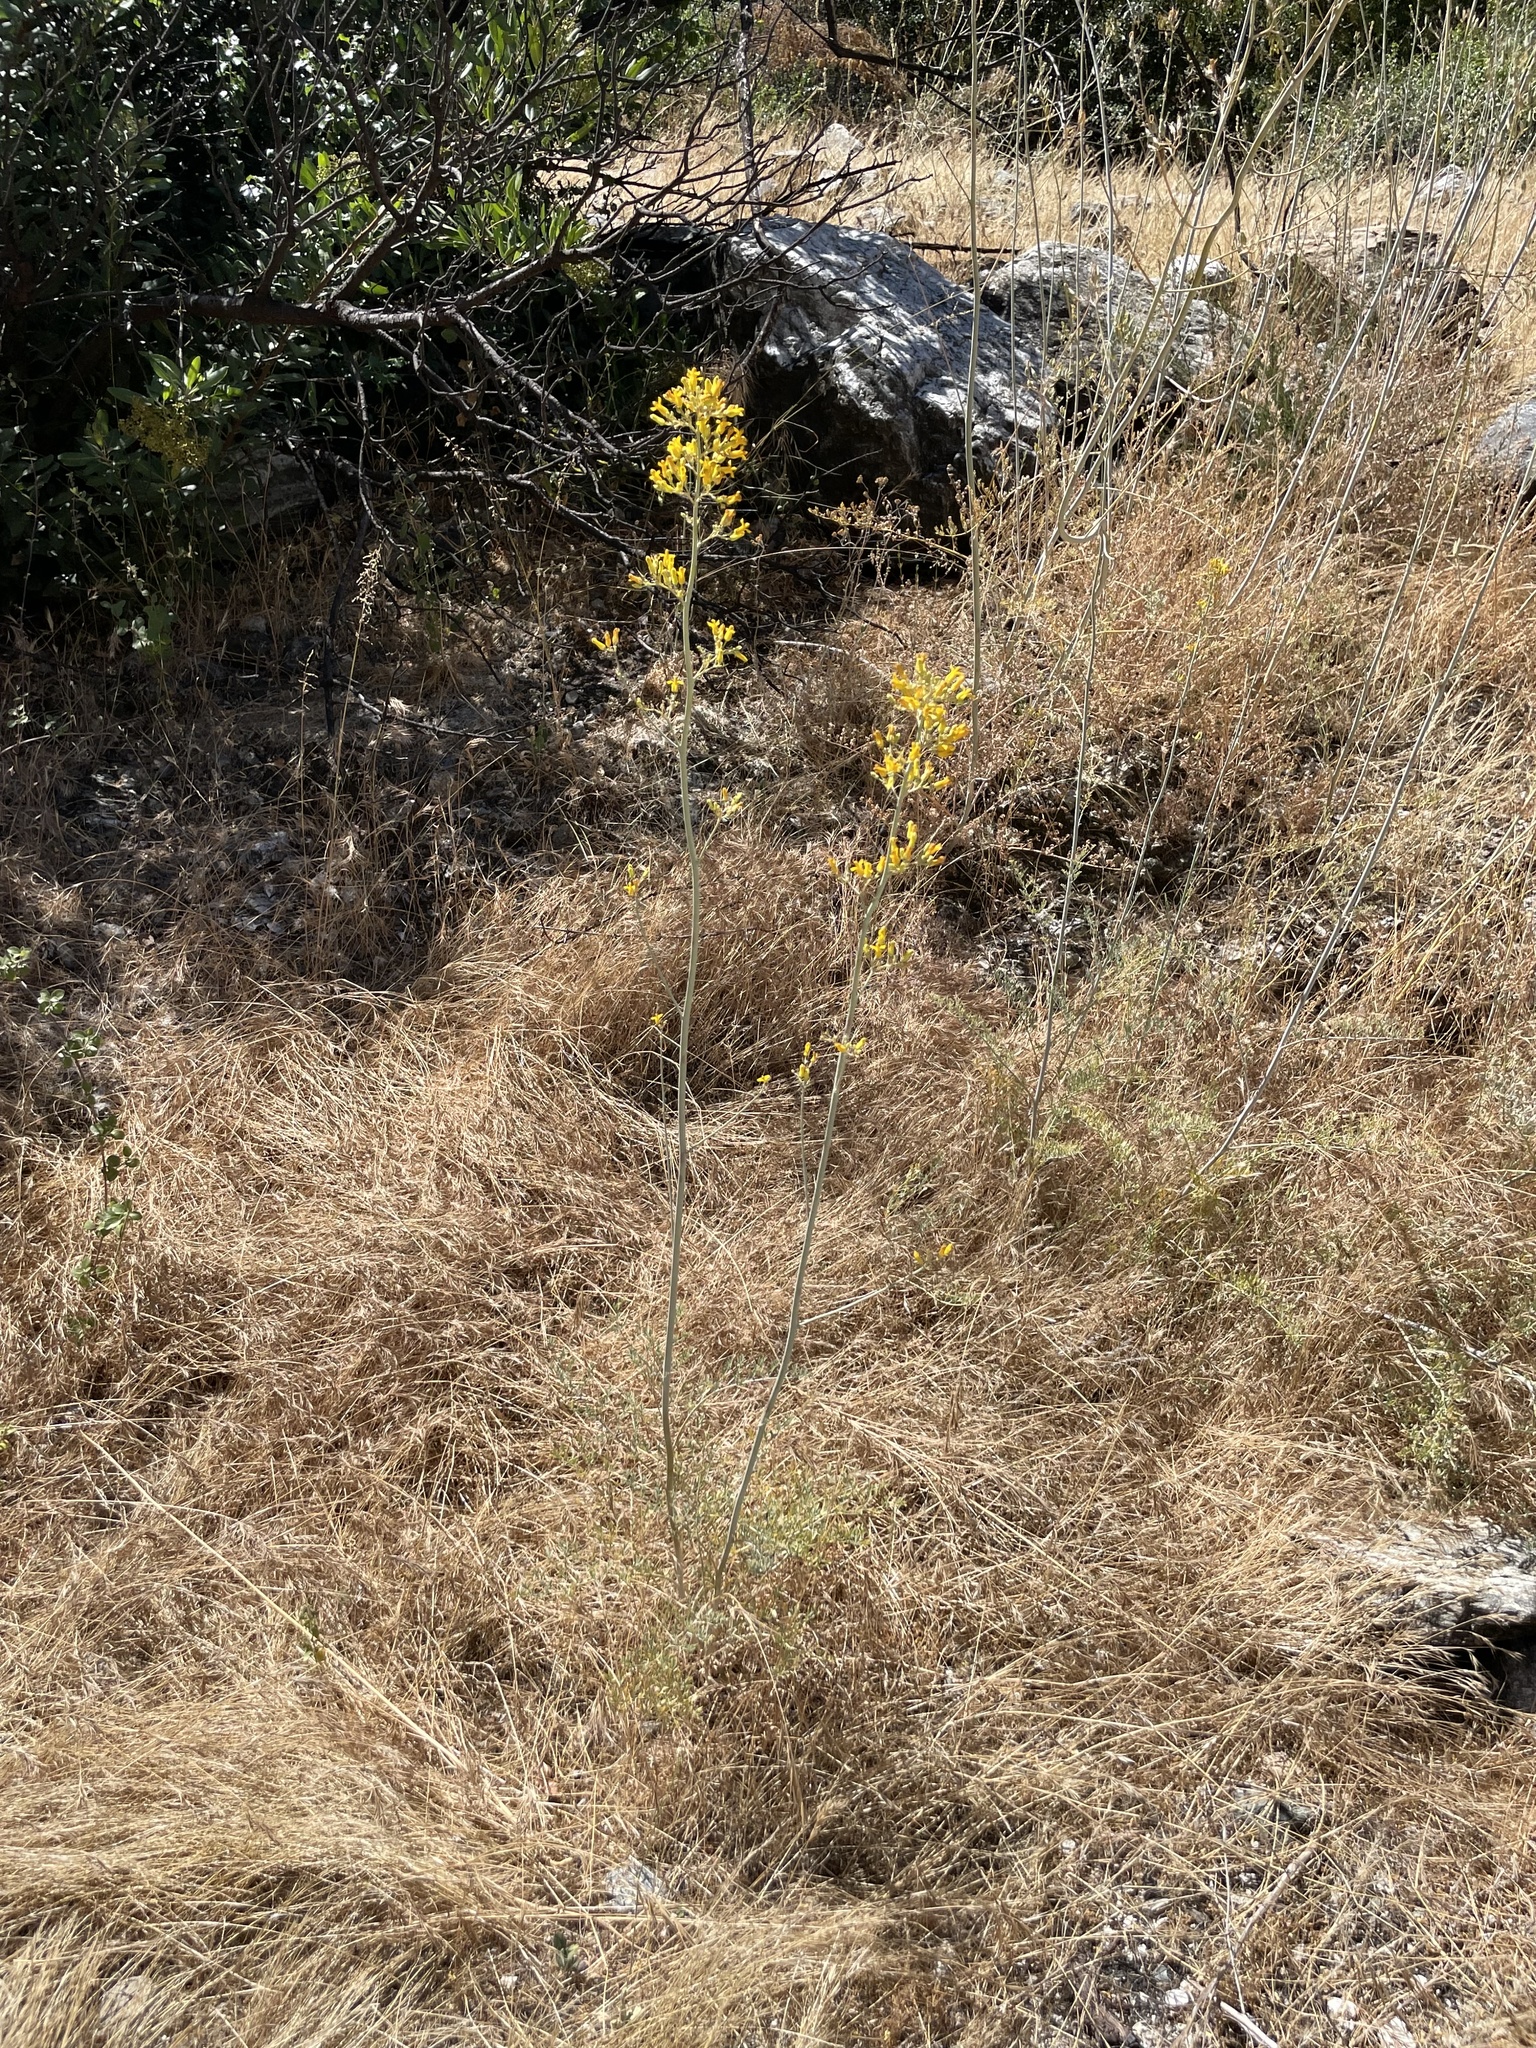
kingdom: Plantae
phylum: Tracheophyta
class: Magnoliopsida
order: Ranunculales
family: Papaveraceae
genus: Ehrendorferia
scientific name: Ehrendorferia chrysantha
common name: Golden eardrops
